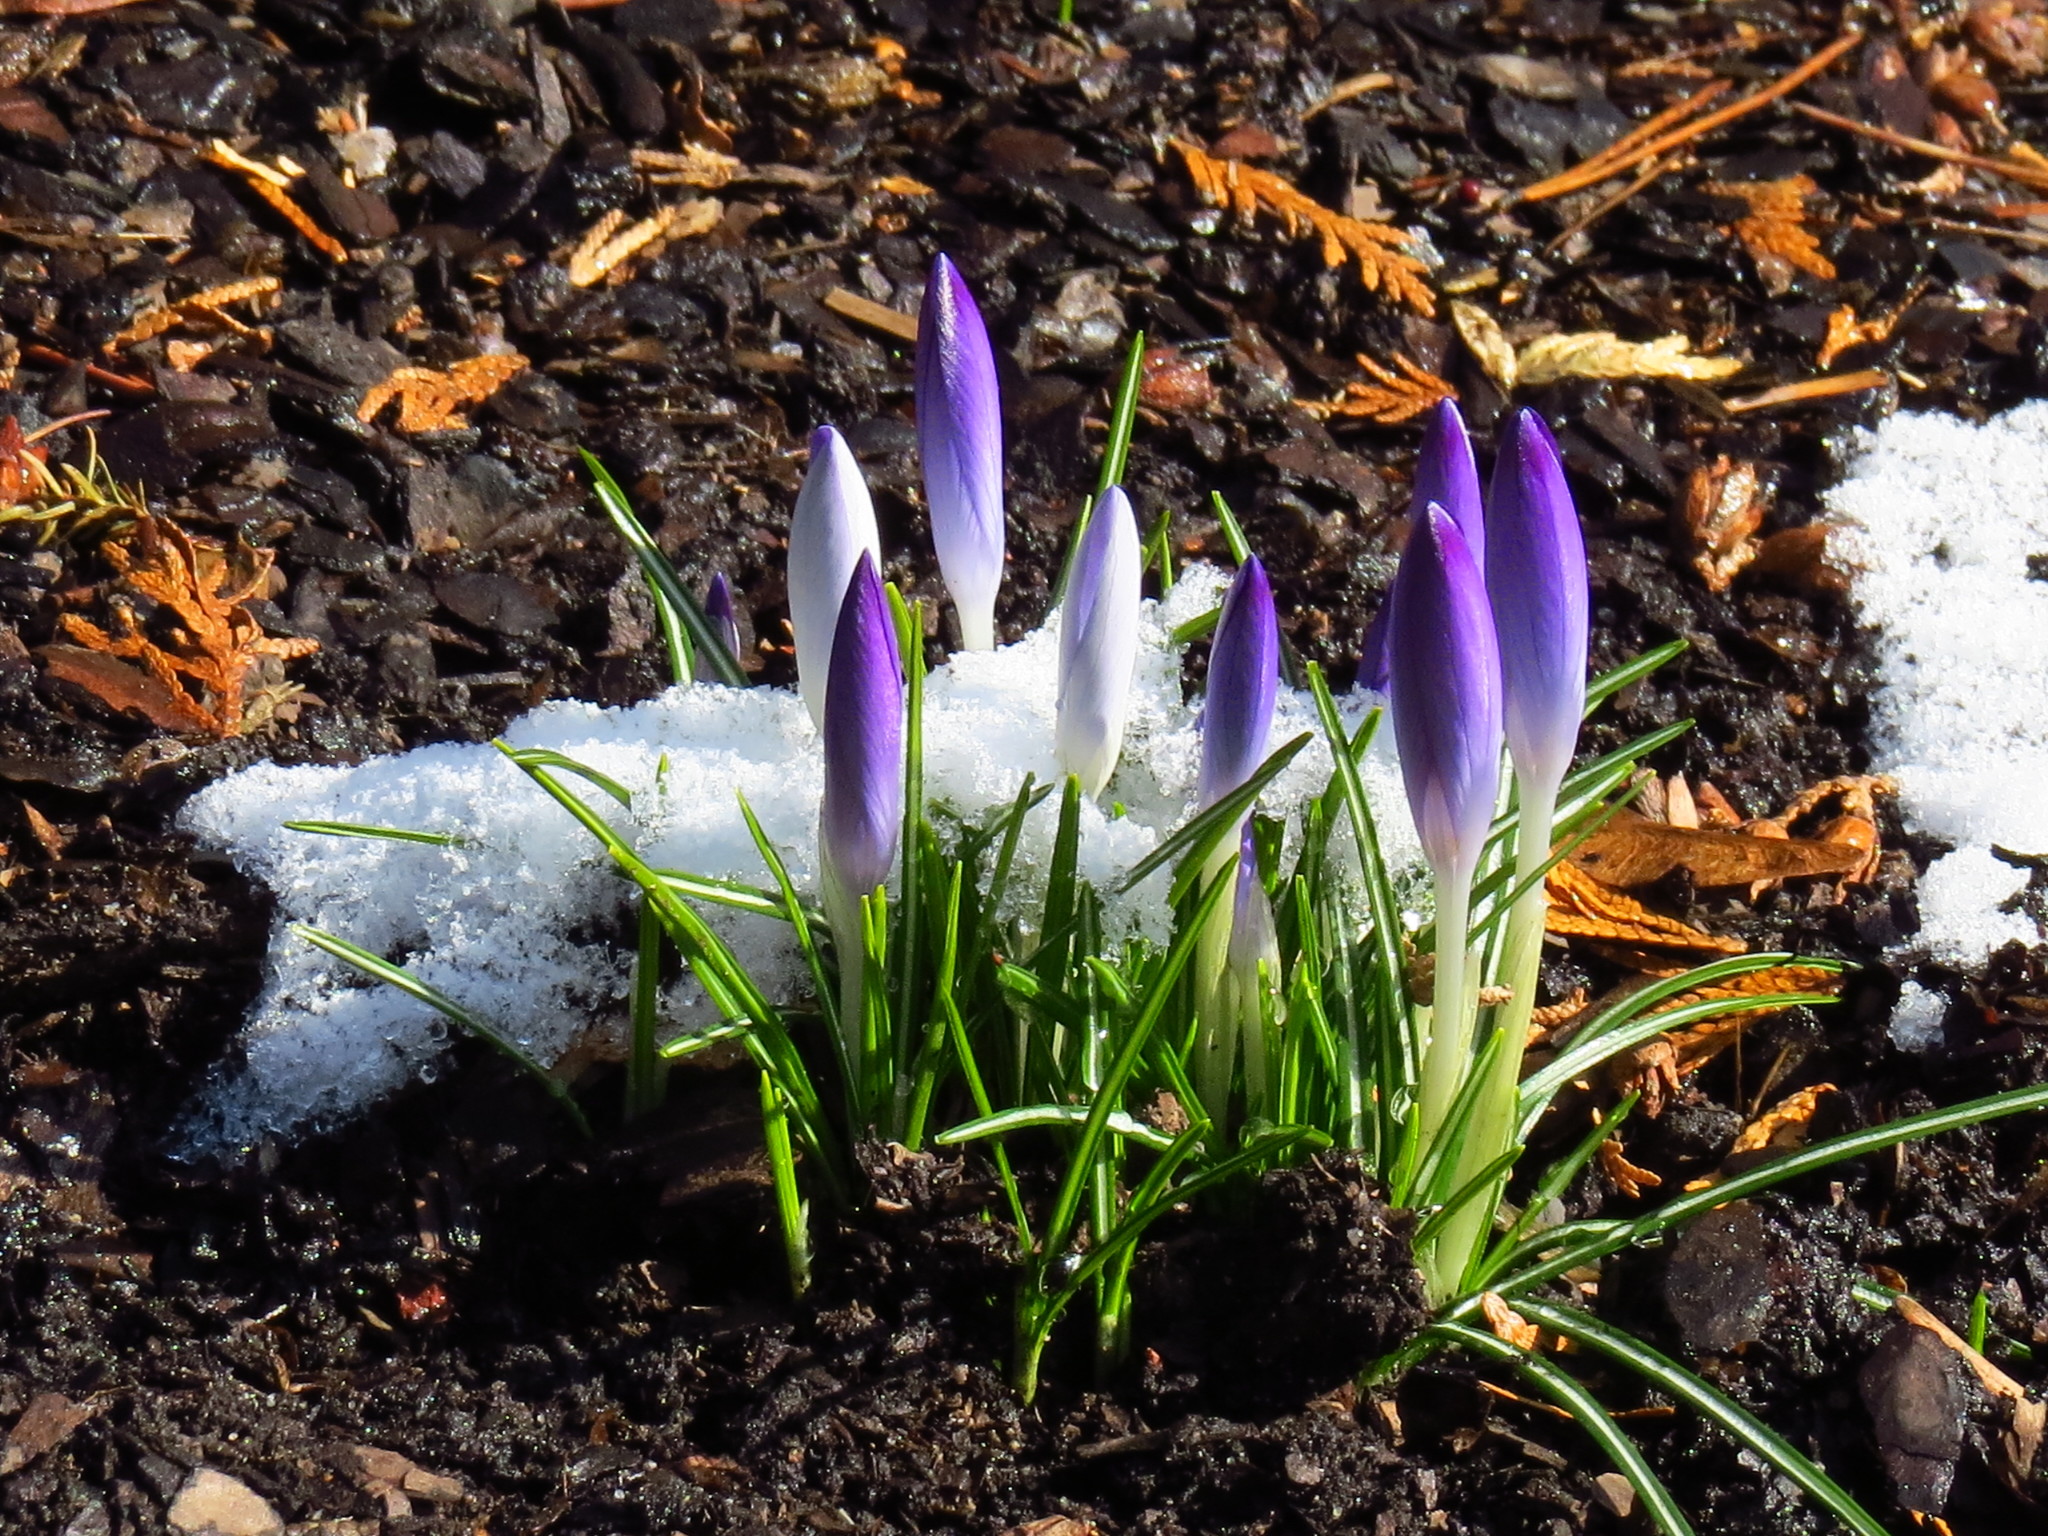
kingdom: Plantae
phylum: Tracheophyta
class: Liliopsida
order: Asparagales
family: Iridaceae
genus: Crocus
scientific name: Crocus tommasinianus
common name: Early crocus
